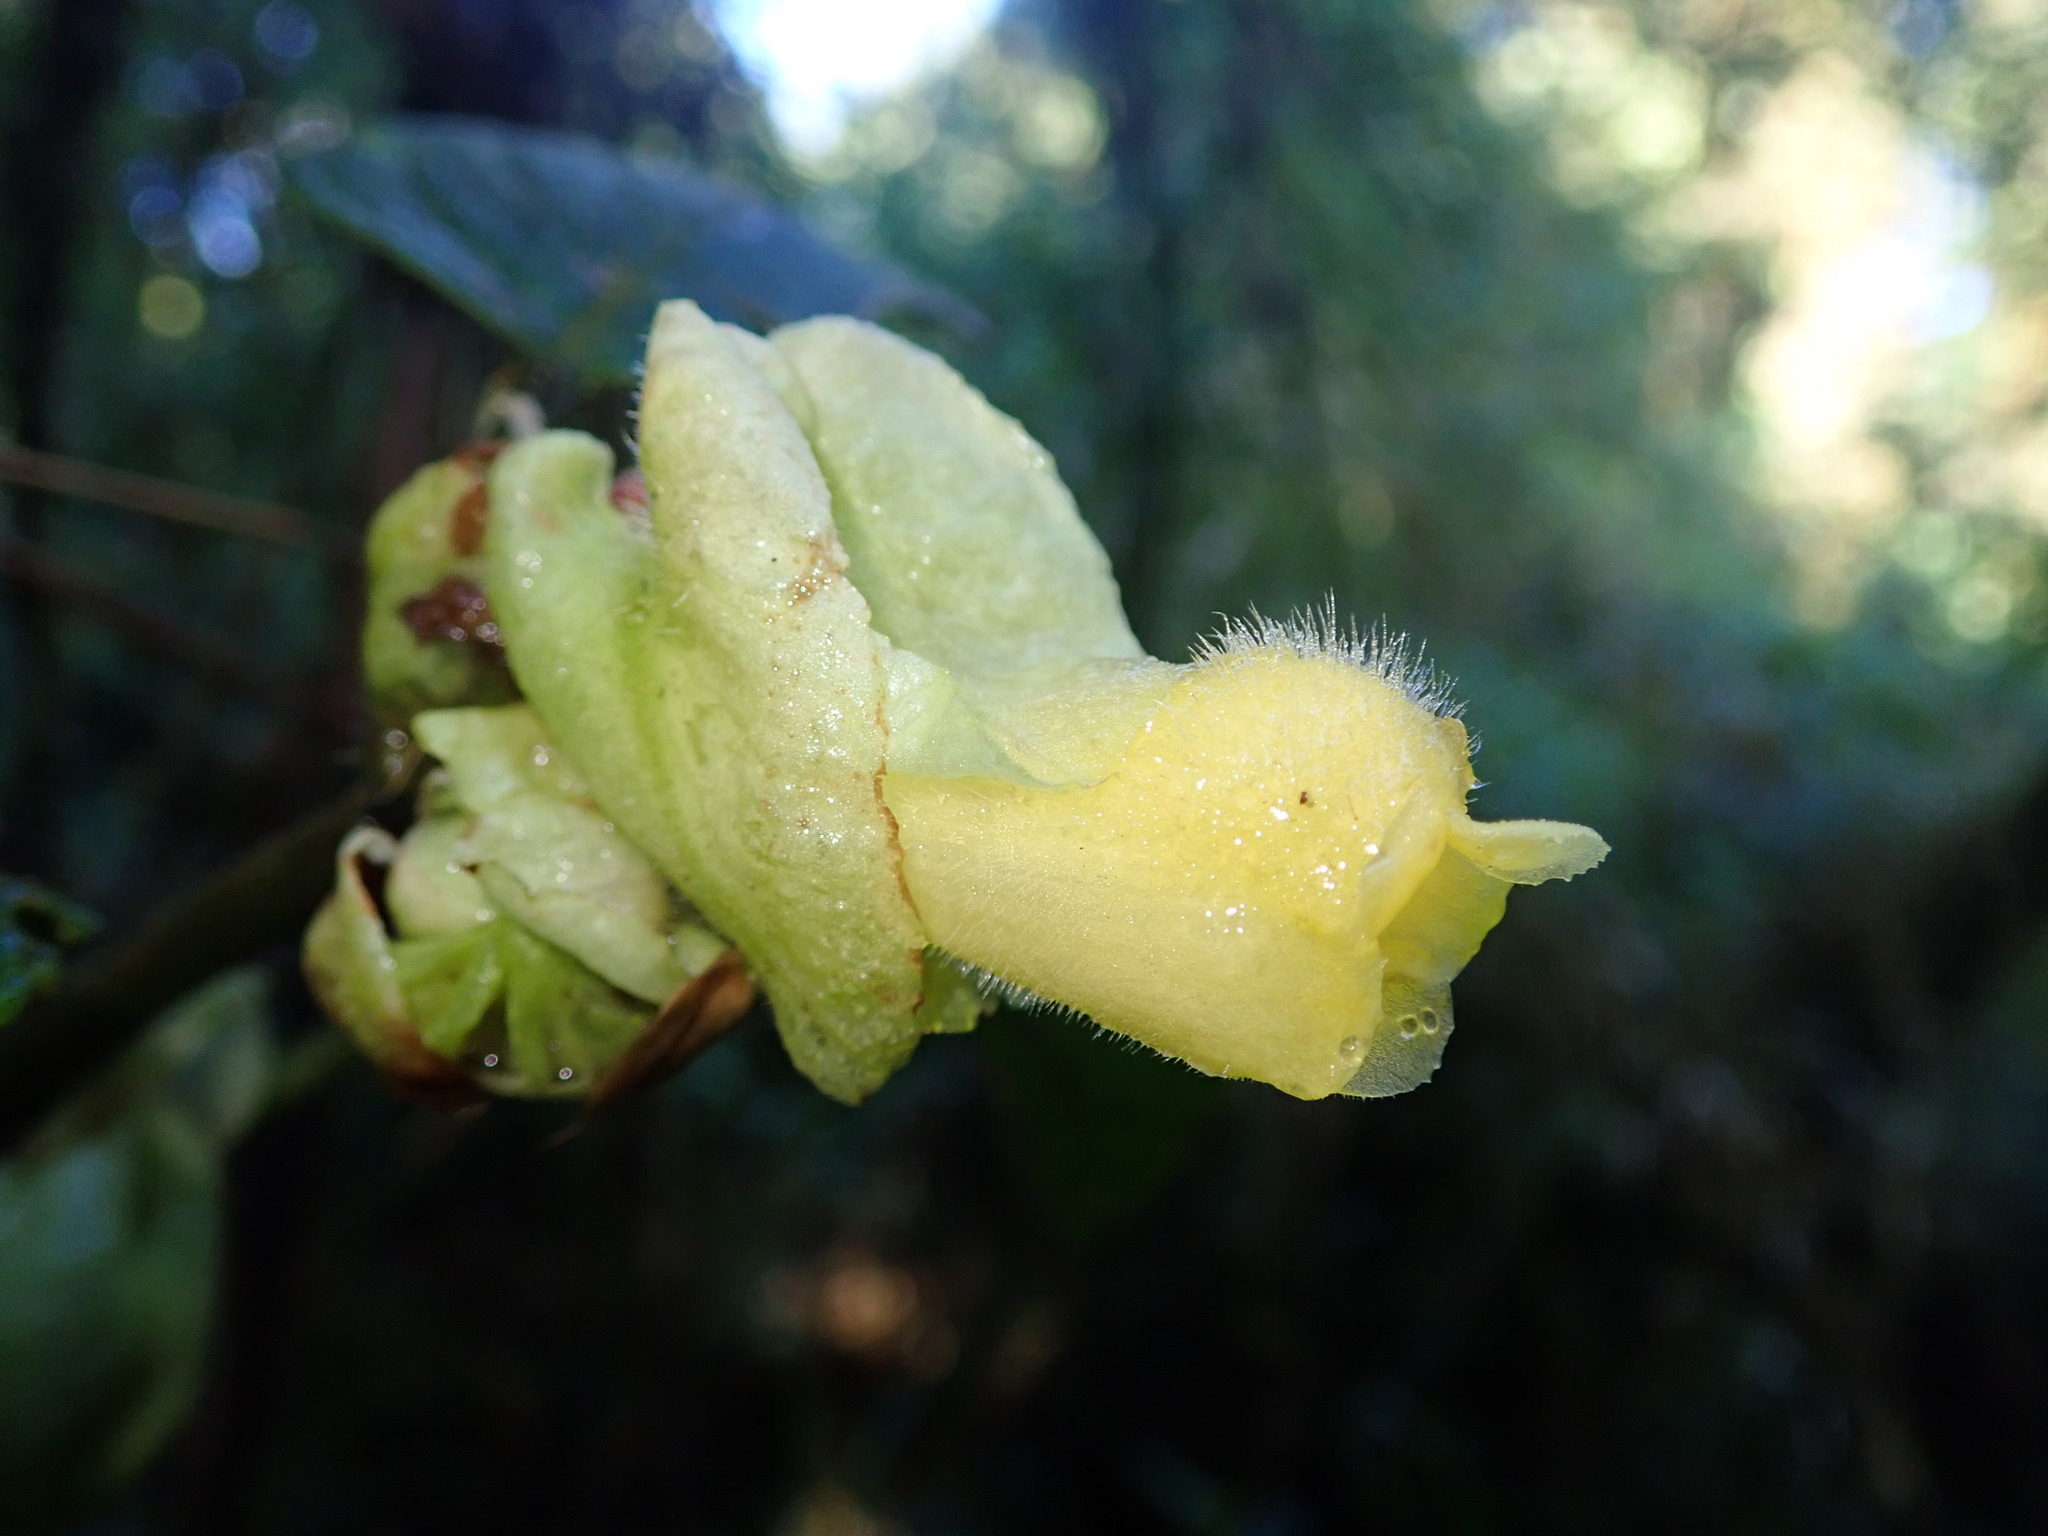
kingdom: Plantae
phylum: Tracheophyta
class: Magnoliopsida
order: Lamiales
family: Gesneriaceae
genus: Glossoloma
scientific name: Glossoloma serpens
